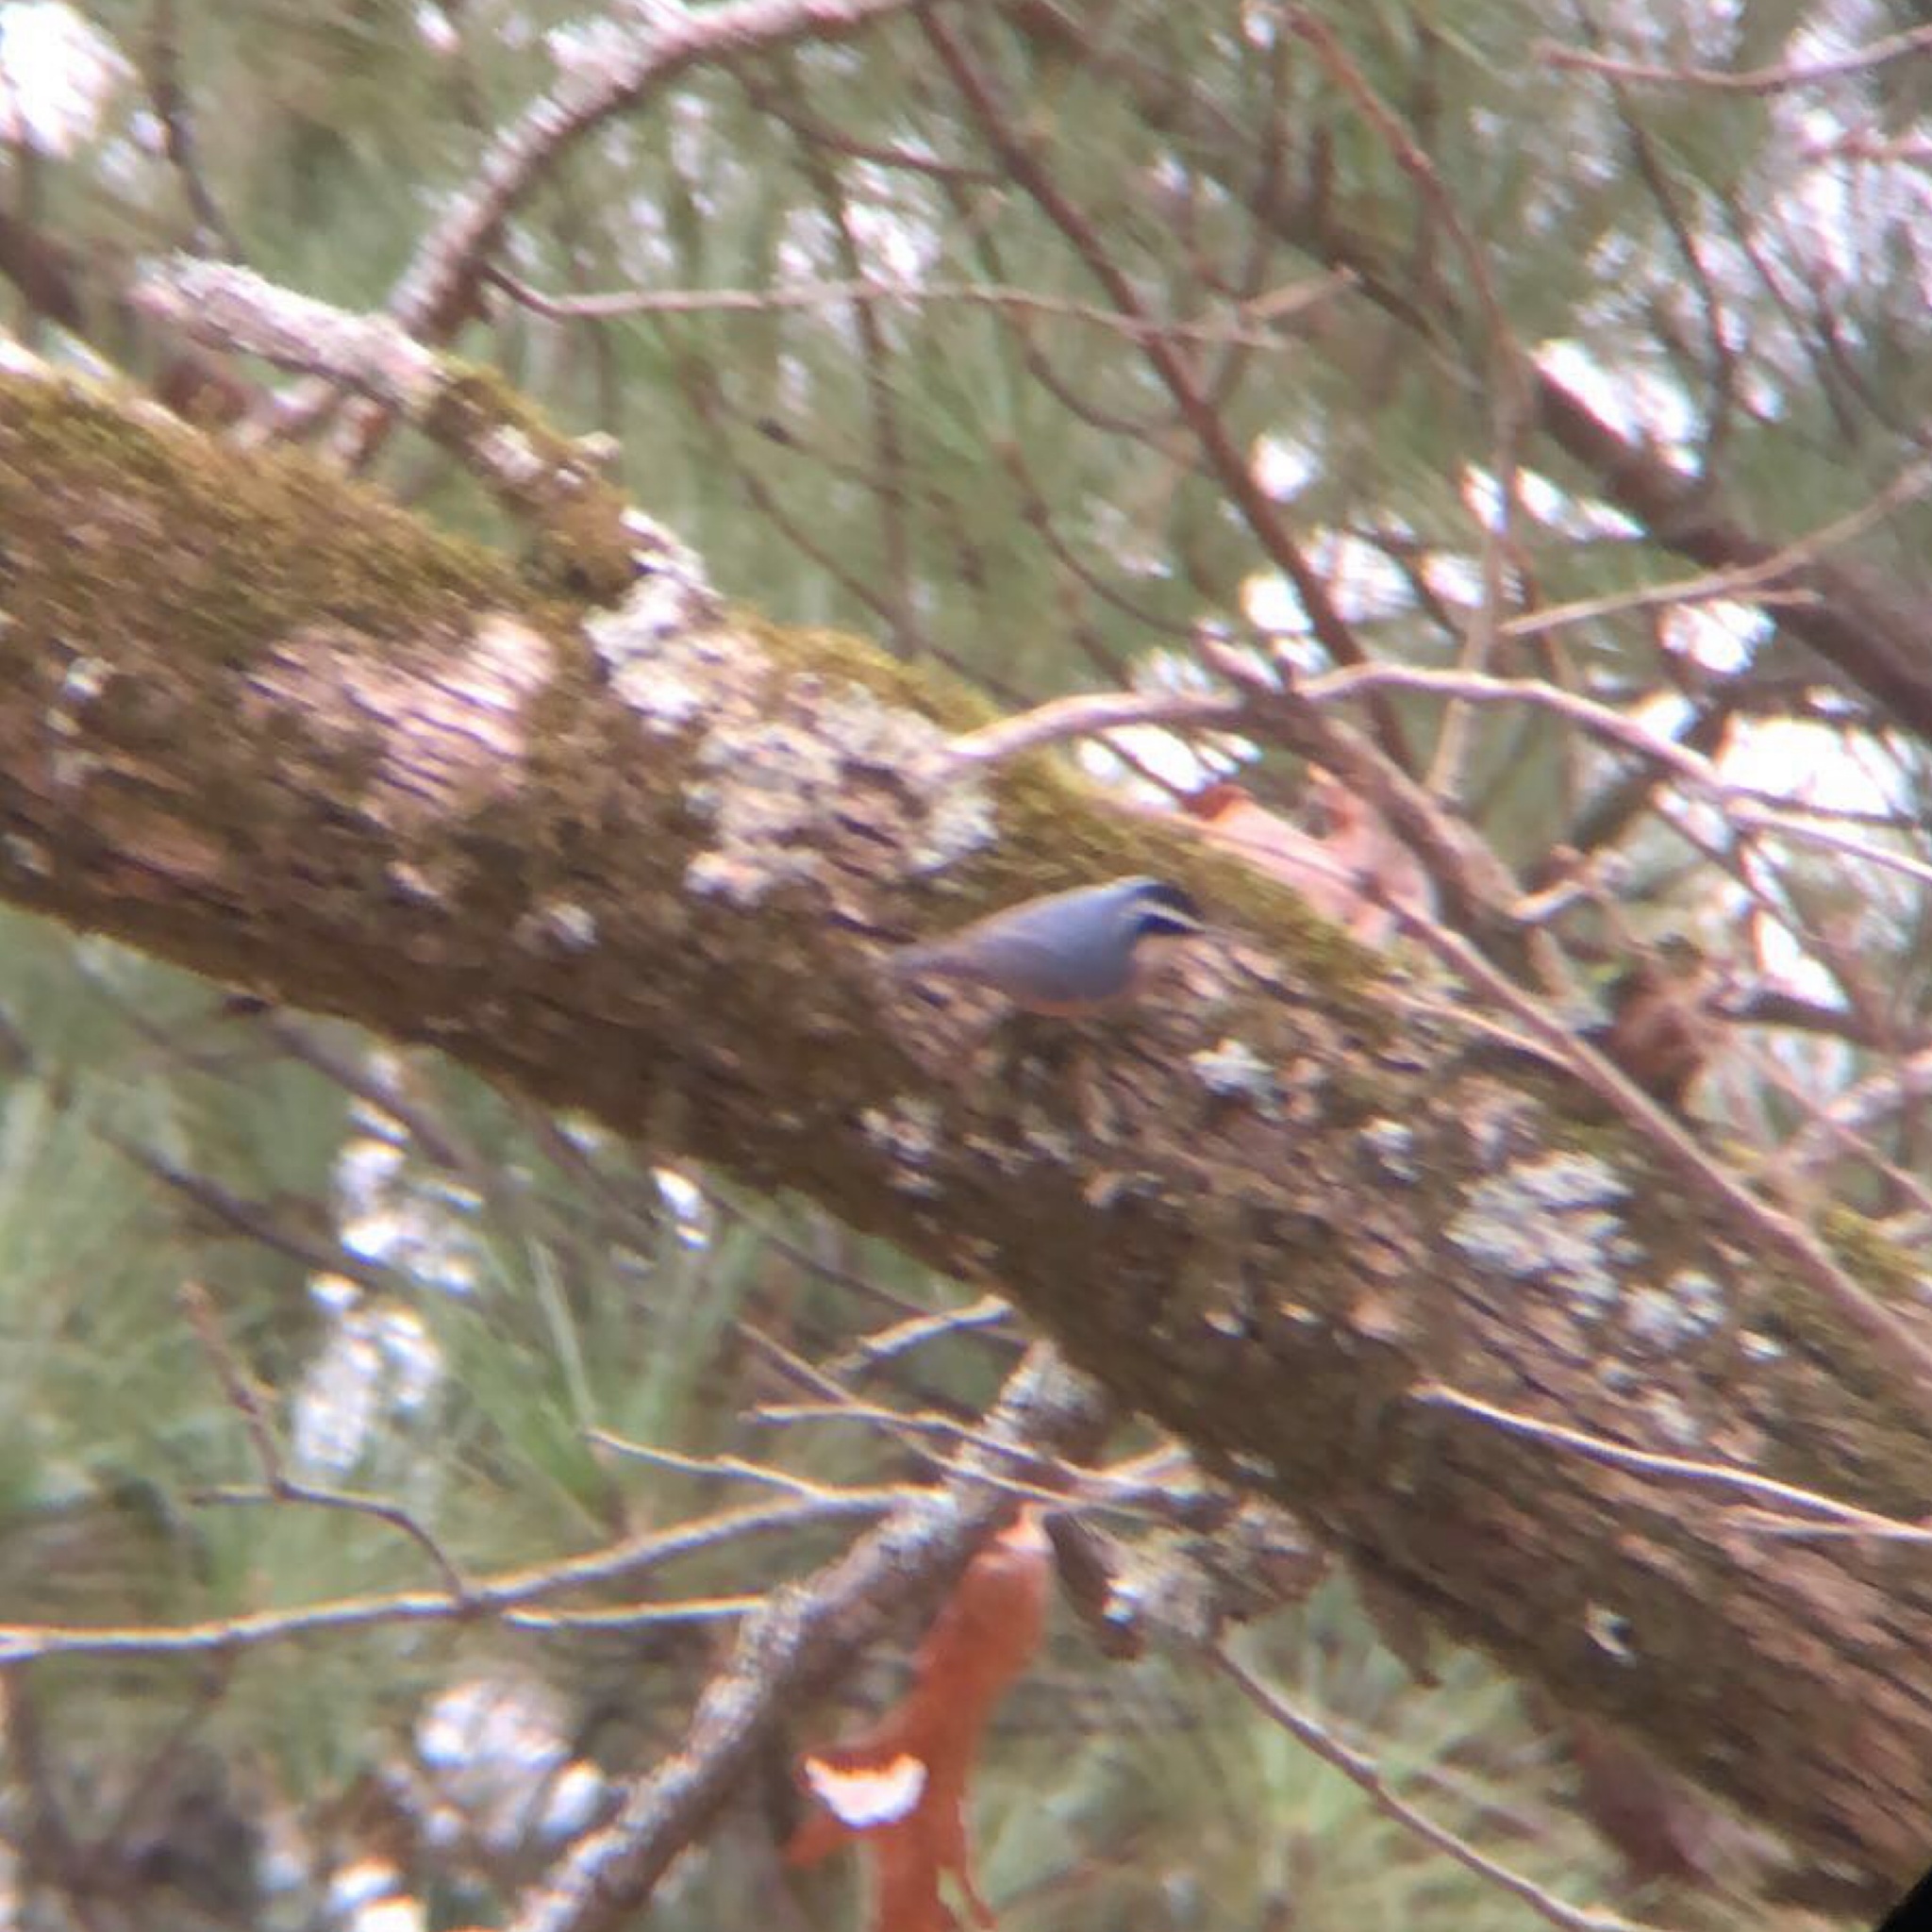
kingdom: Animalia
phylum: Chordata
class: Aves
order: Passeriformes
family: Sittidae
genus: Sitta
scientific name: Sitta canadensis
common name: Red-breasted nuthatch
